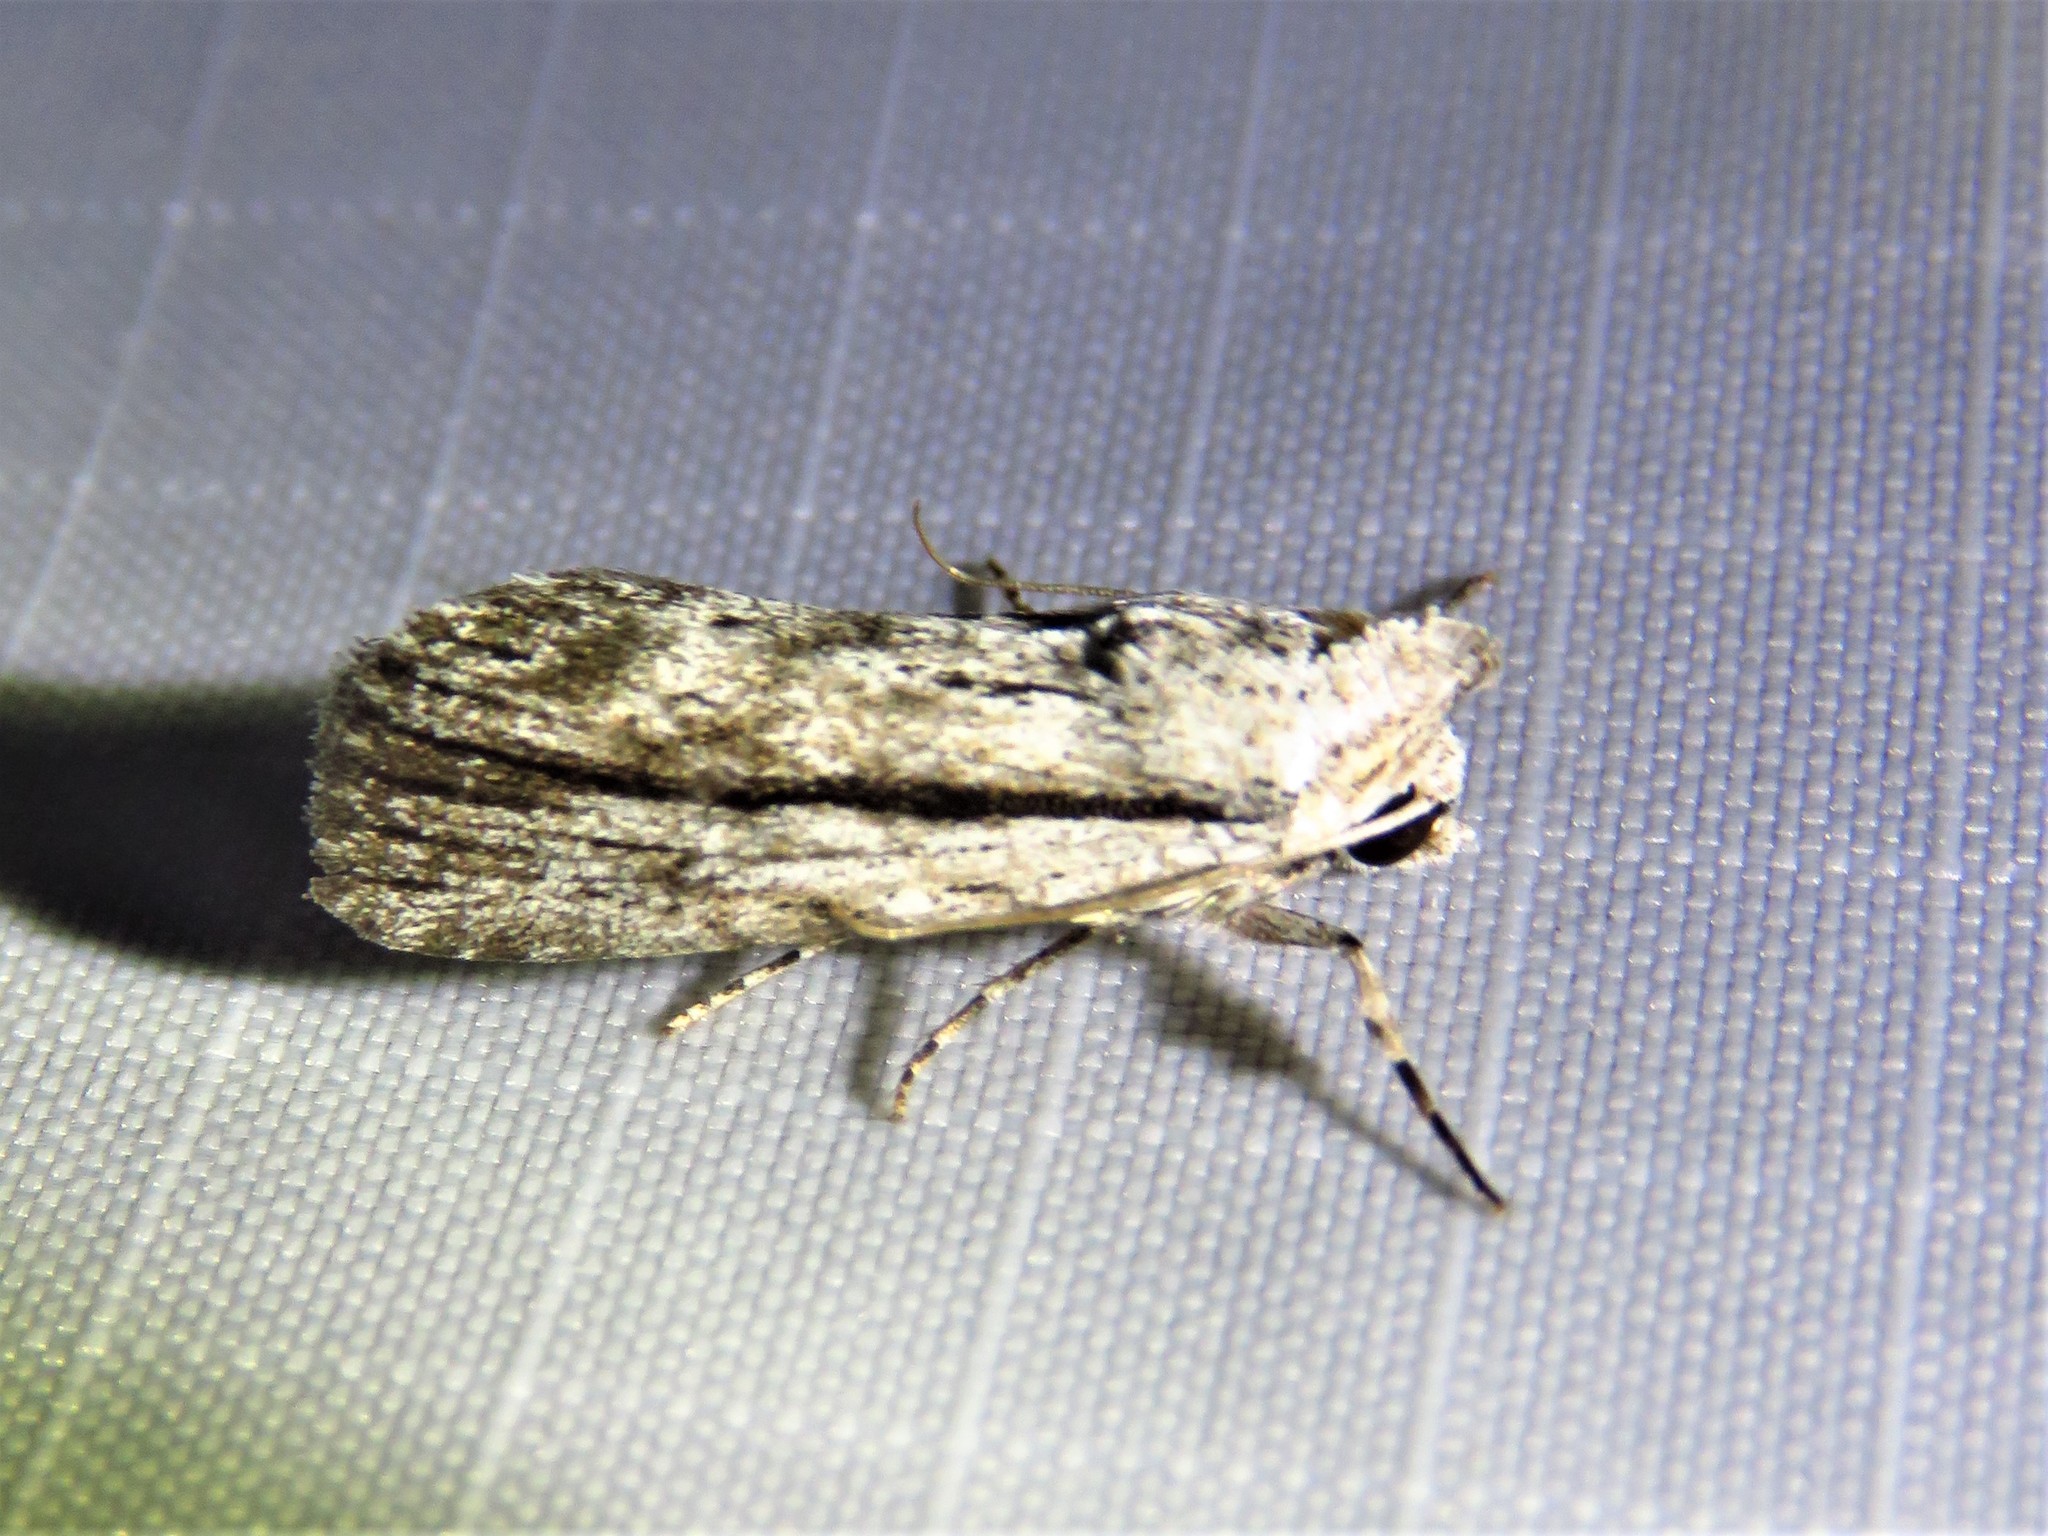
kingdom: Animalia
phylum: Arthropoda
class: Insecta
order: Lepidoptera
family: Noctuidae
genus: Catabenoides
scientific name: Catabenoides terminellus
